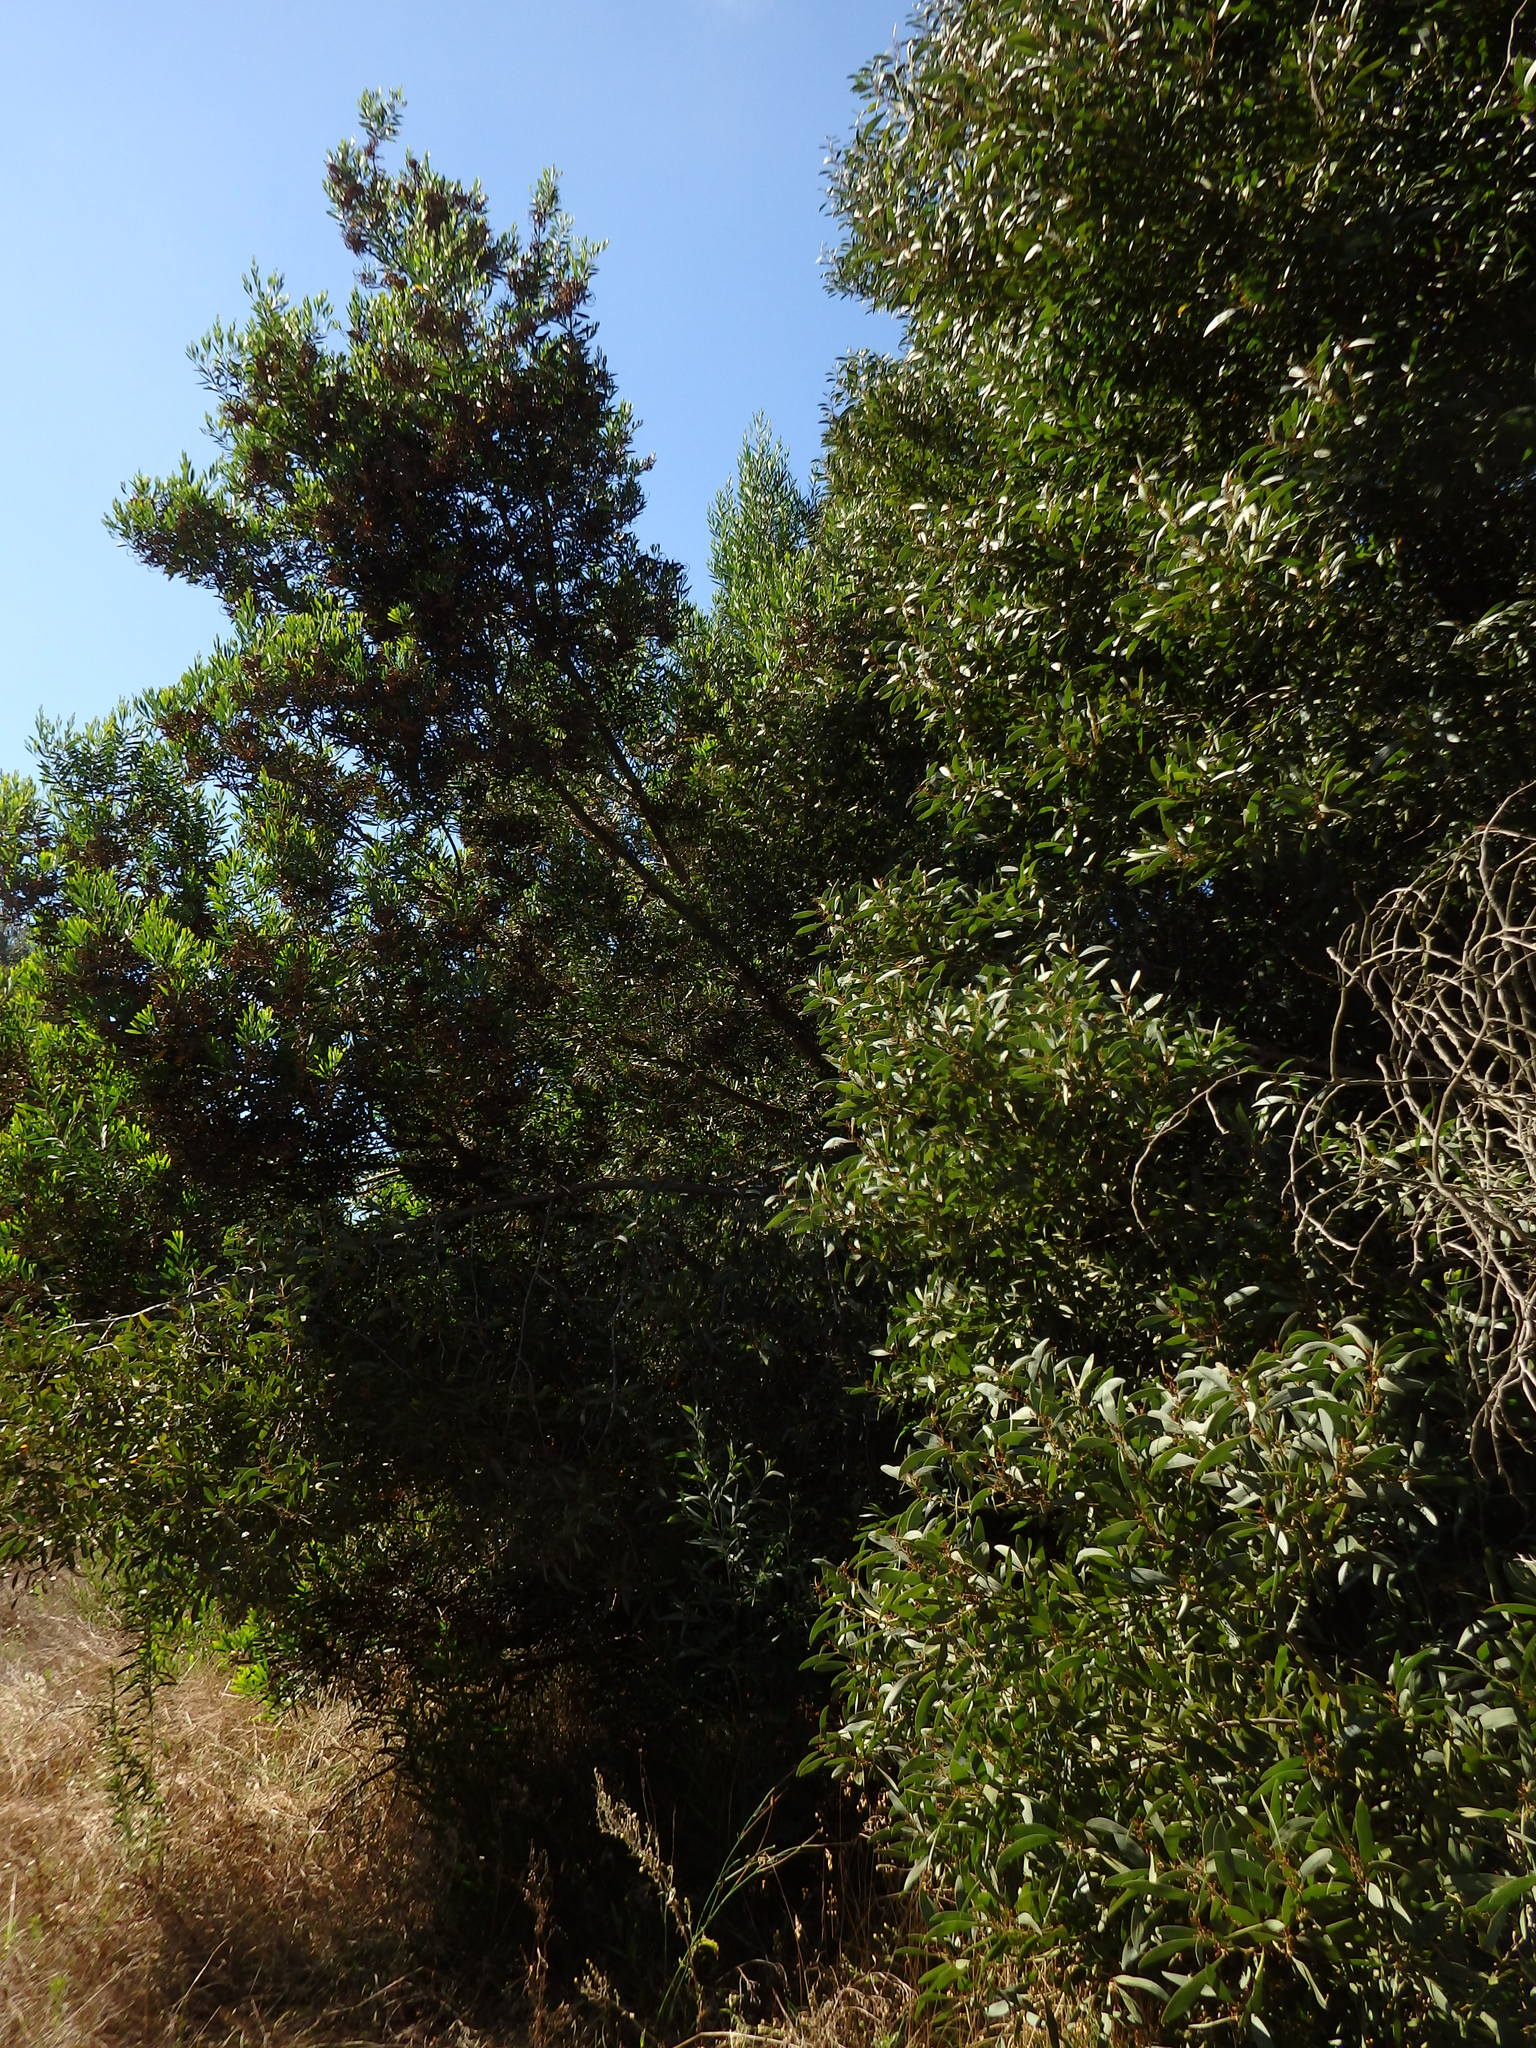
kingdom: Plantae
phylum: Tracheophyta
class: Magnoliopsida
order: Fabales
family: Fabaceae
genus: Acacia
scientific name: Acacia melanoxylon
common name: Blackwood
